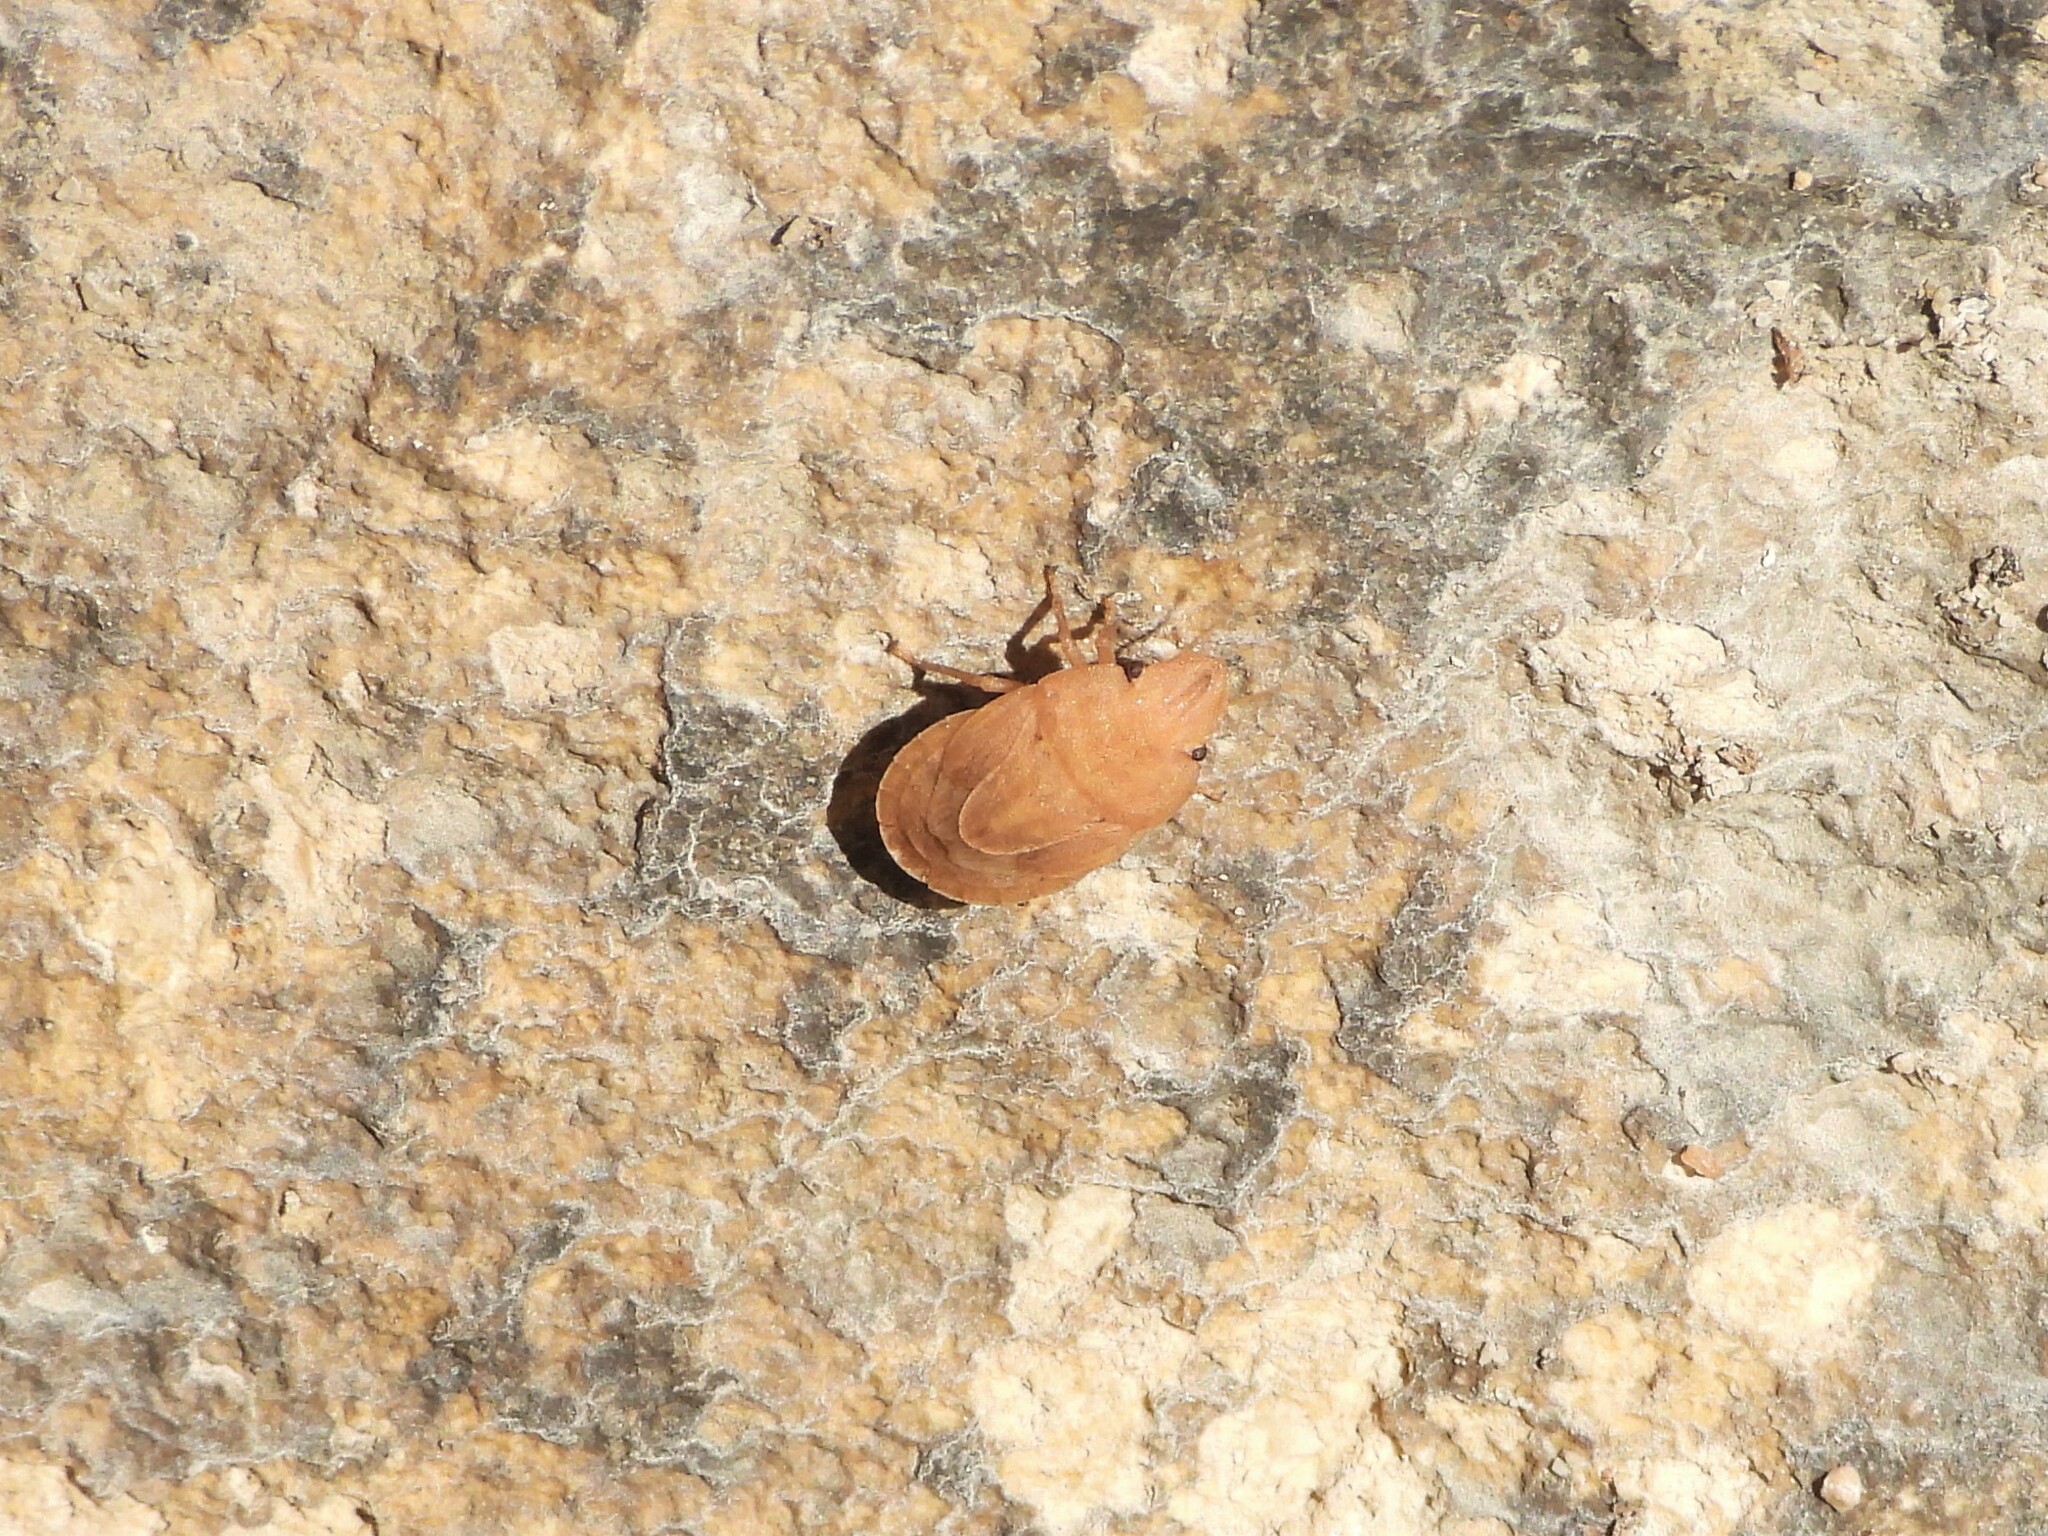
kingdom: Animalia
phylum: Arthropoda
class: Insecta
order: Hemiptera
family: Pentatomidae
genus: Sciocoris
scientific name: Sciocoris sulcatus
